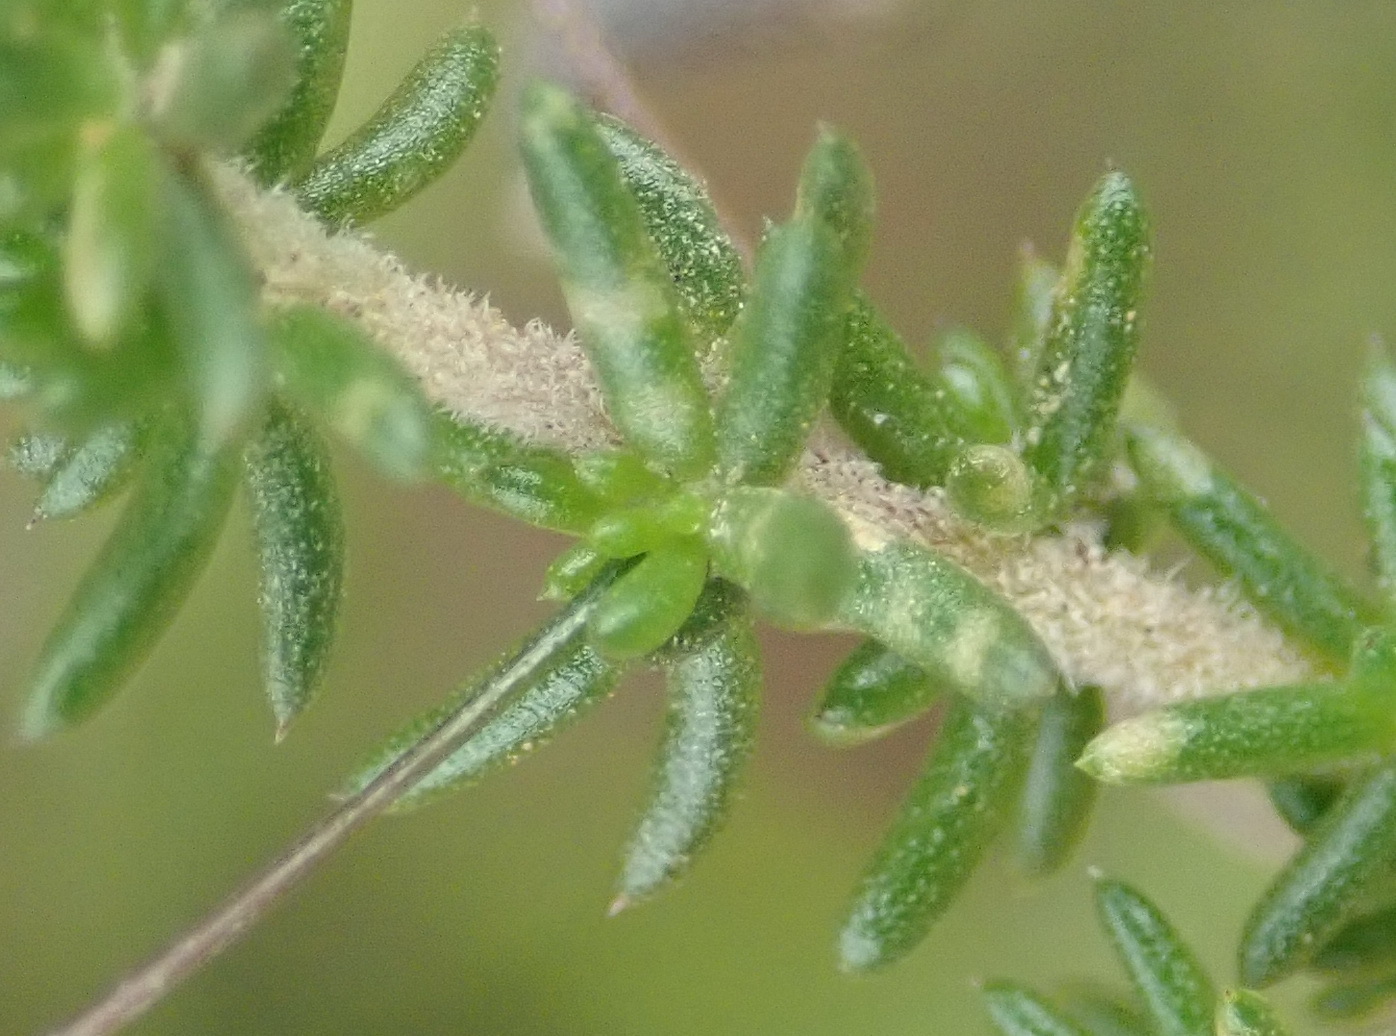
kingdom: Plantae
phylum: Tracheophyta
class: Magnoliopsida
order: Fabales
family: Fabaceae
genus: Aspalathus
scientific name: Aspalathus tenuissima
